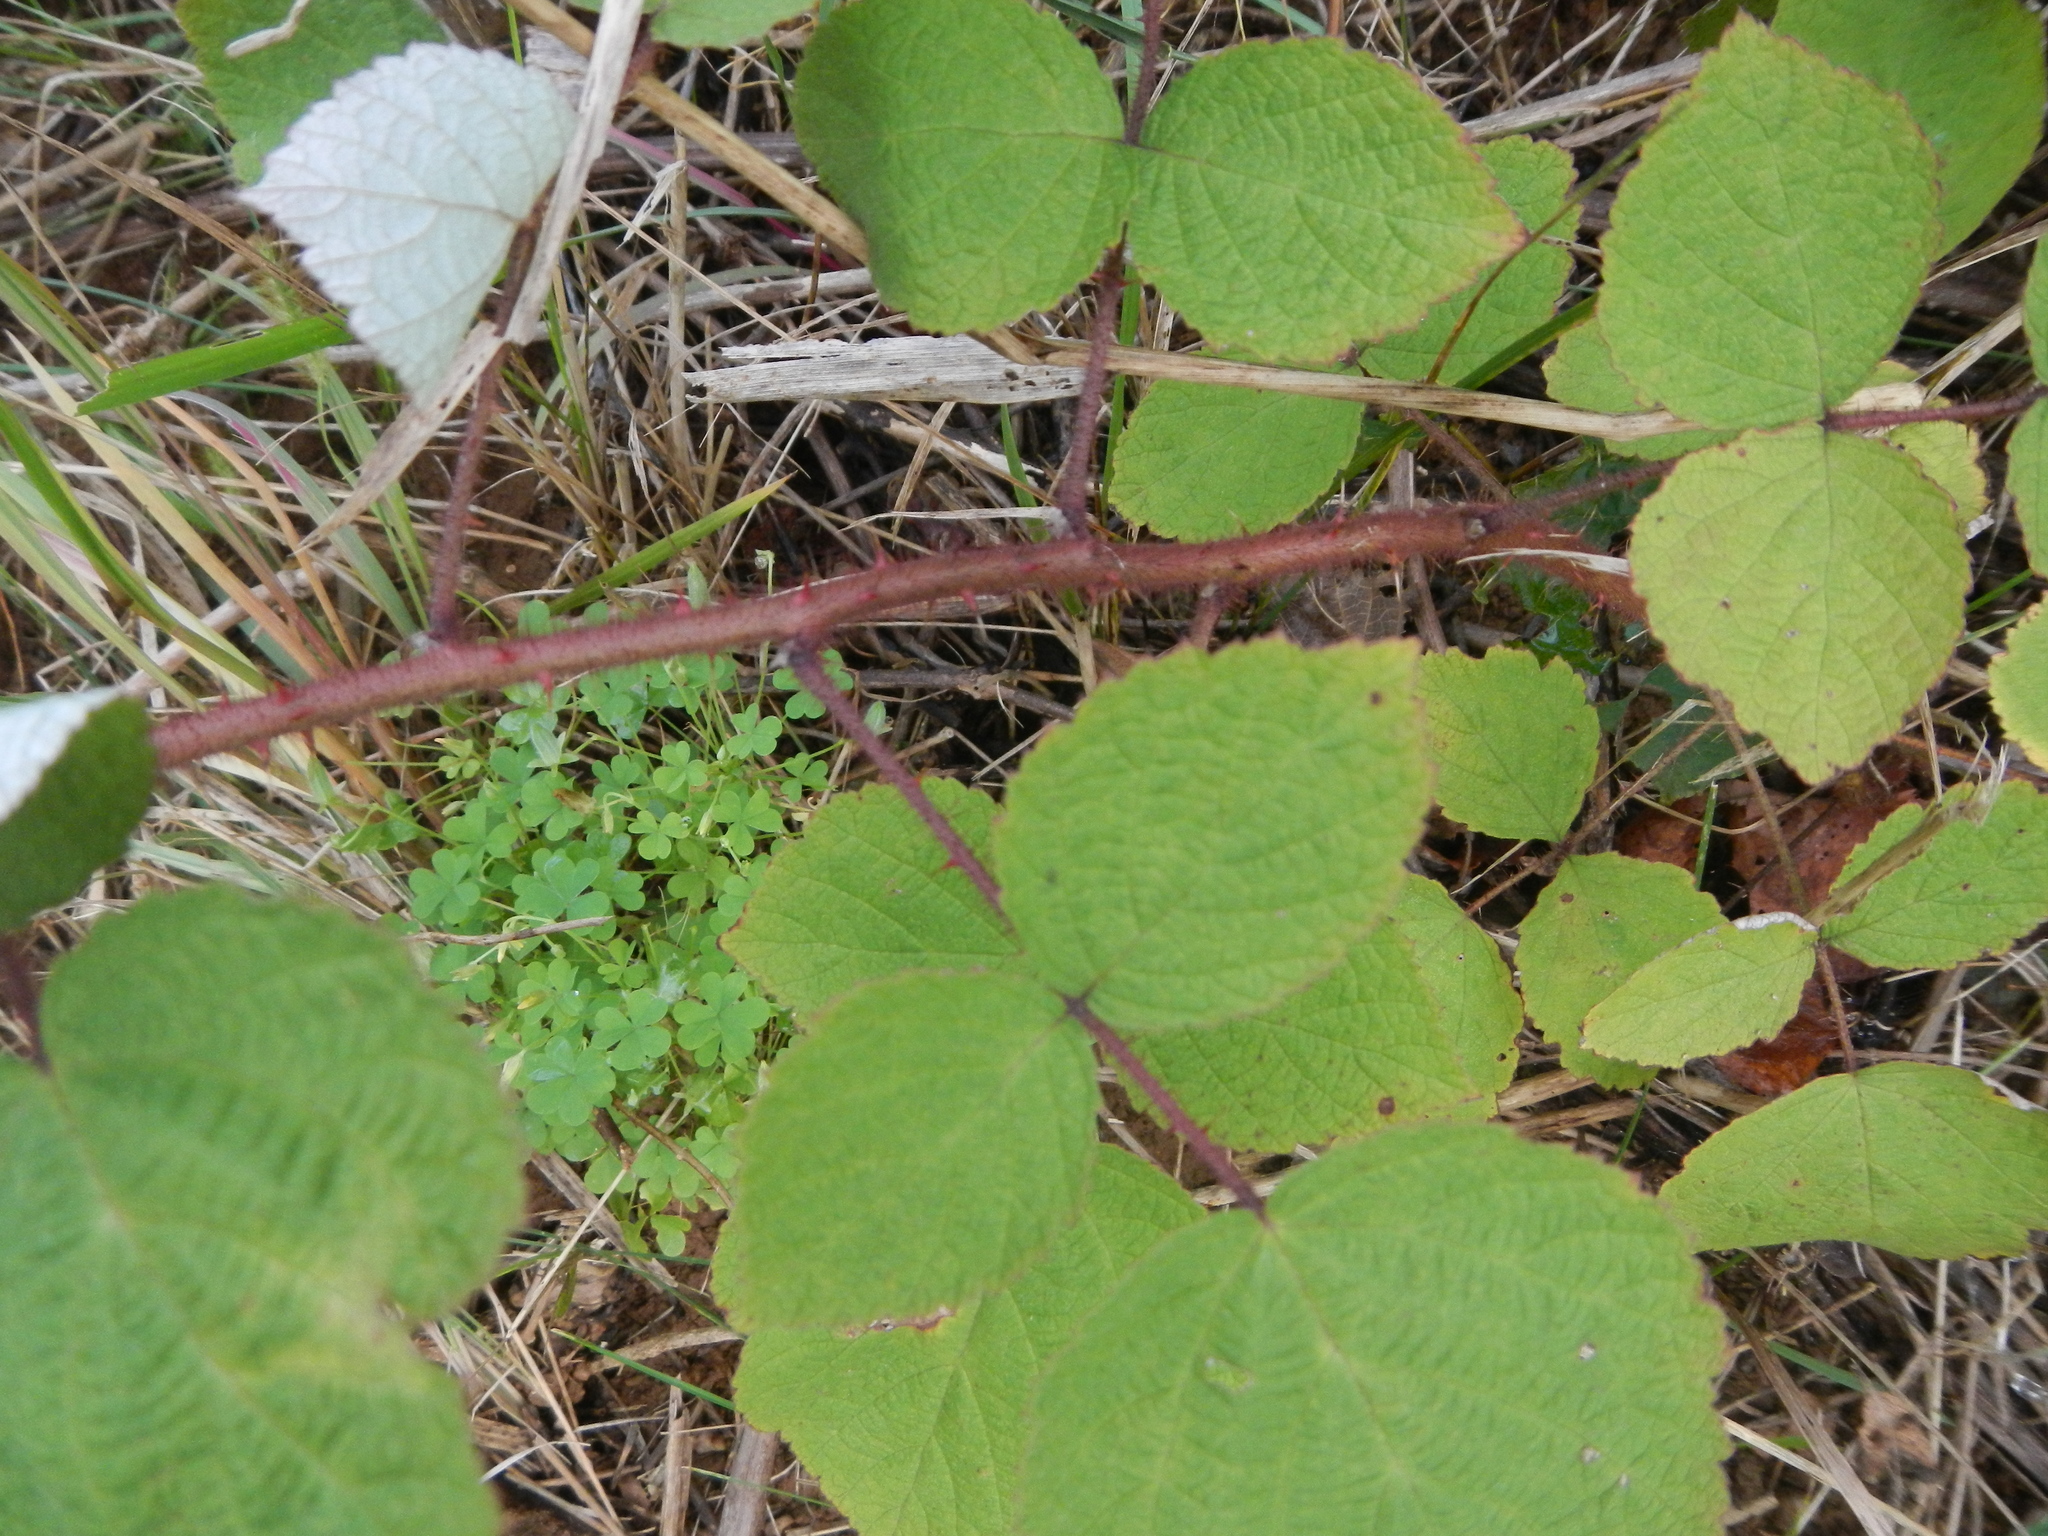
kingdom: Plantae
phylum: Tracheophyta
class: Magnoliopsida
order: Rosales
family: Rosaceae
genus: Rubus
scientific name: Rubus phoenicolasius
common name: Japanese wineberry
